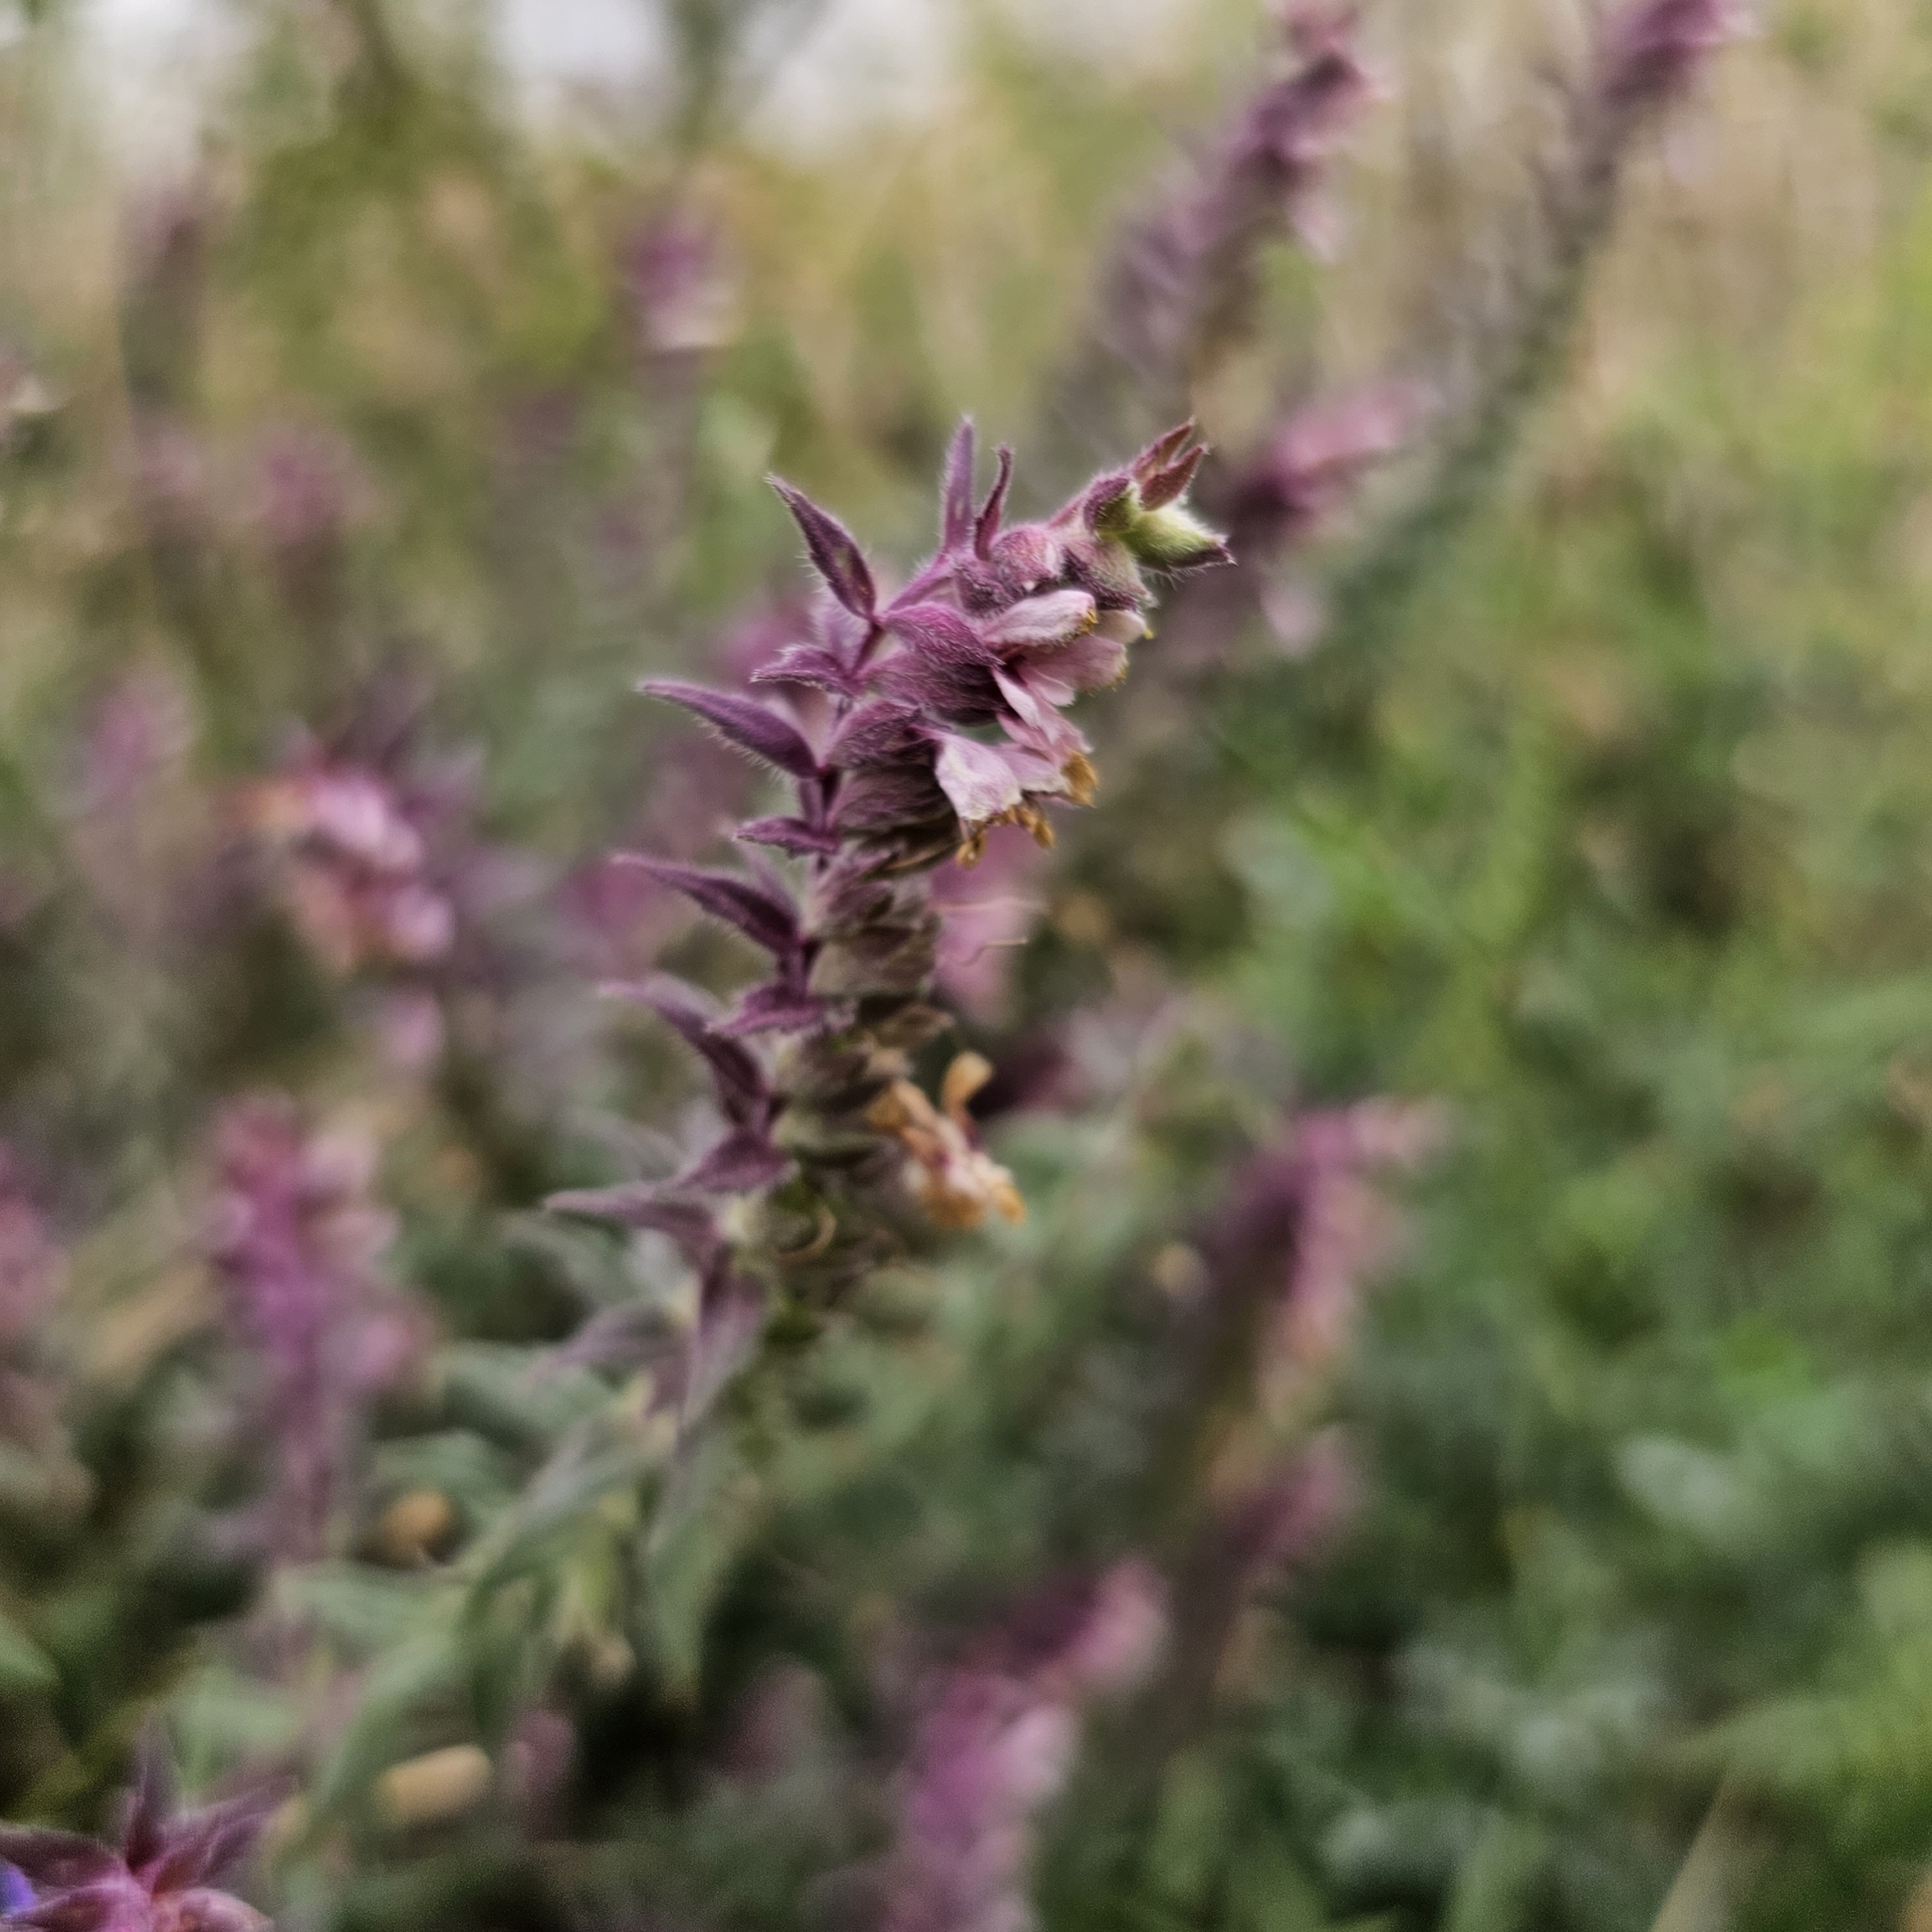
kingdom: Plantae
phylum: Tracheophyta
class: Magnoliopsida
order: Lamiales
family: Orobanchaceae
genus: Odontites
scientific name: Odontites vulgaris
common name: Broomrape
